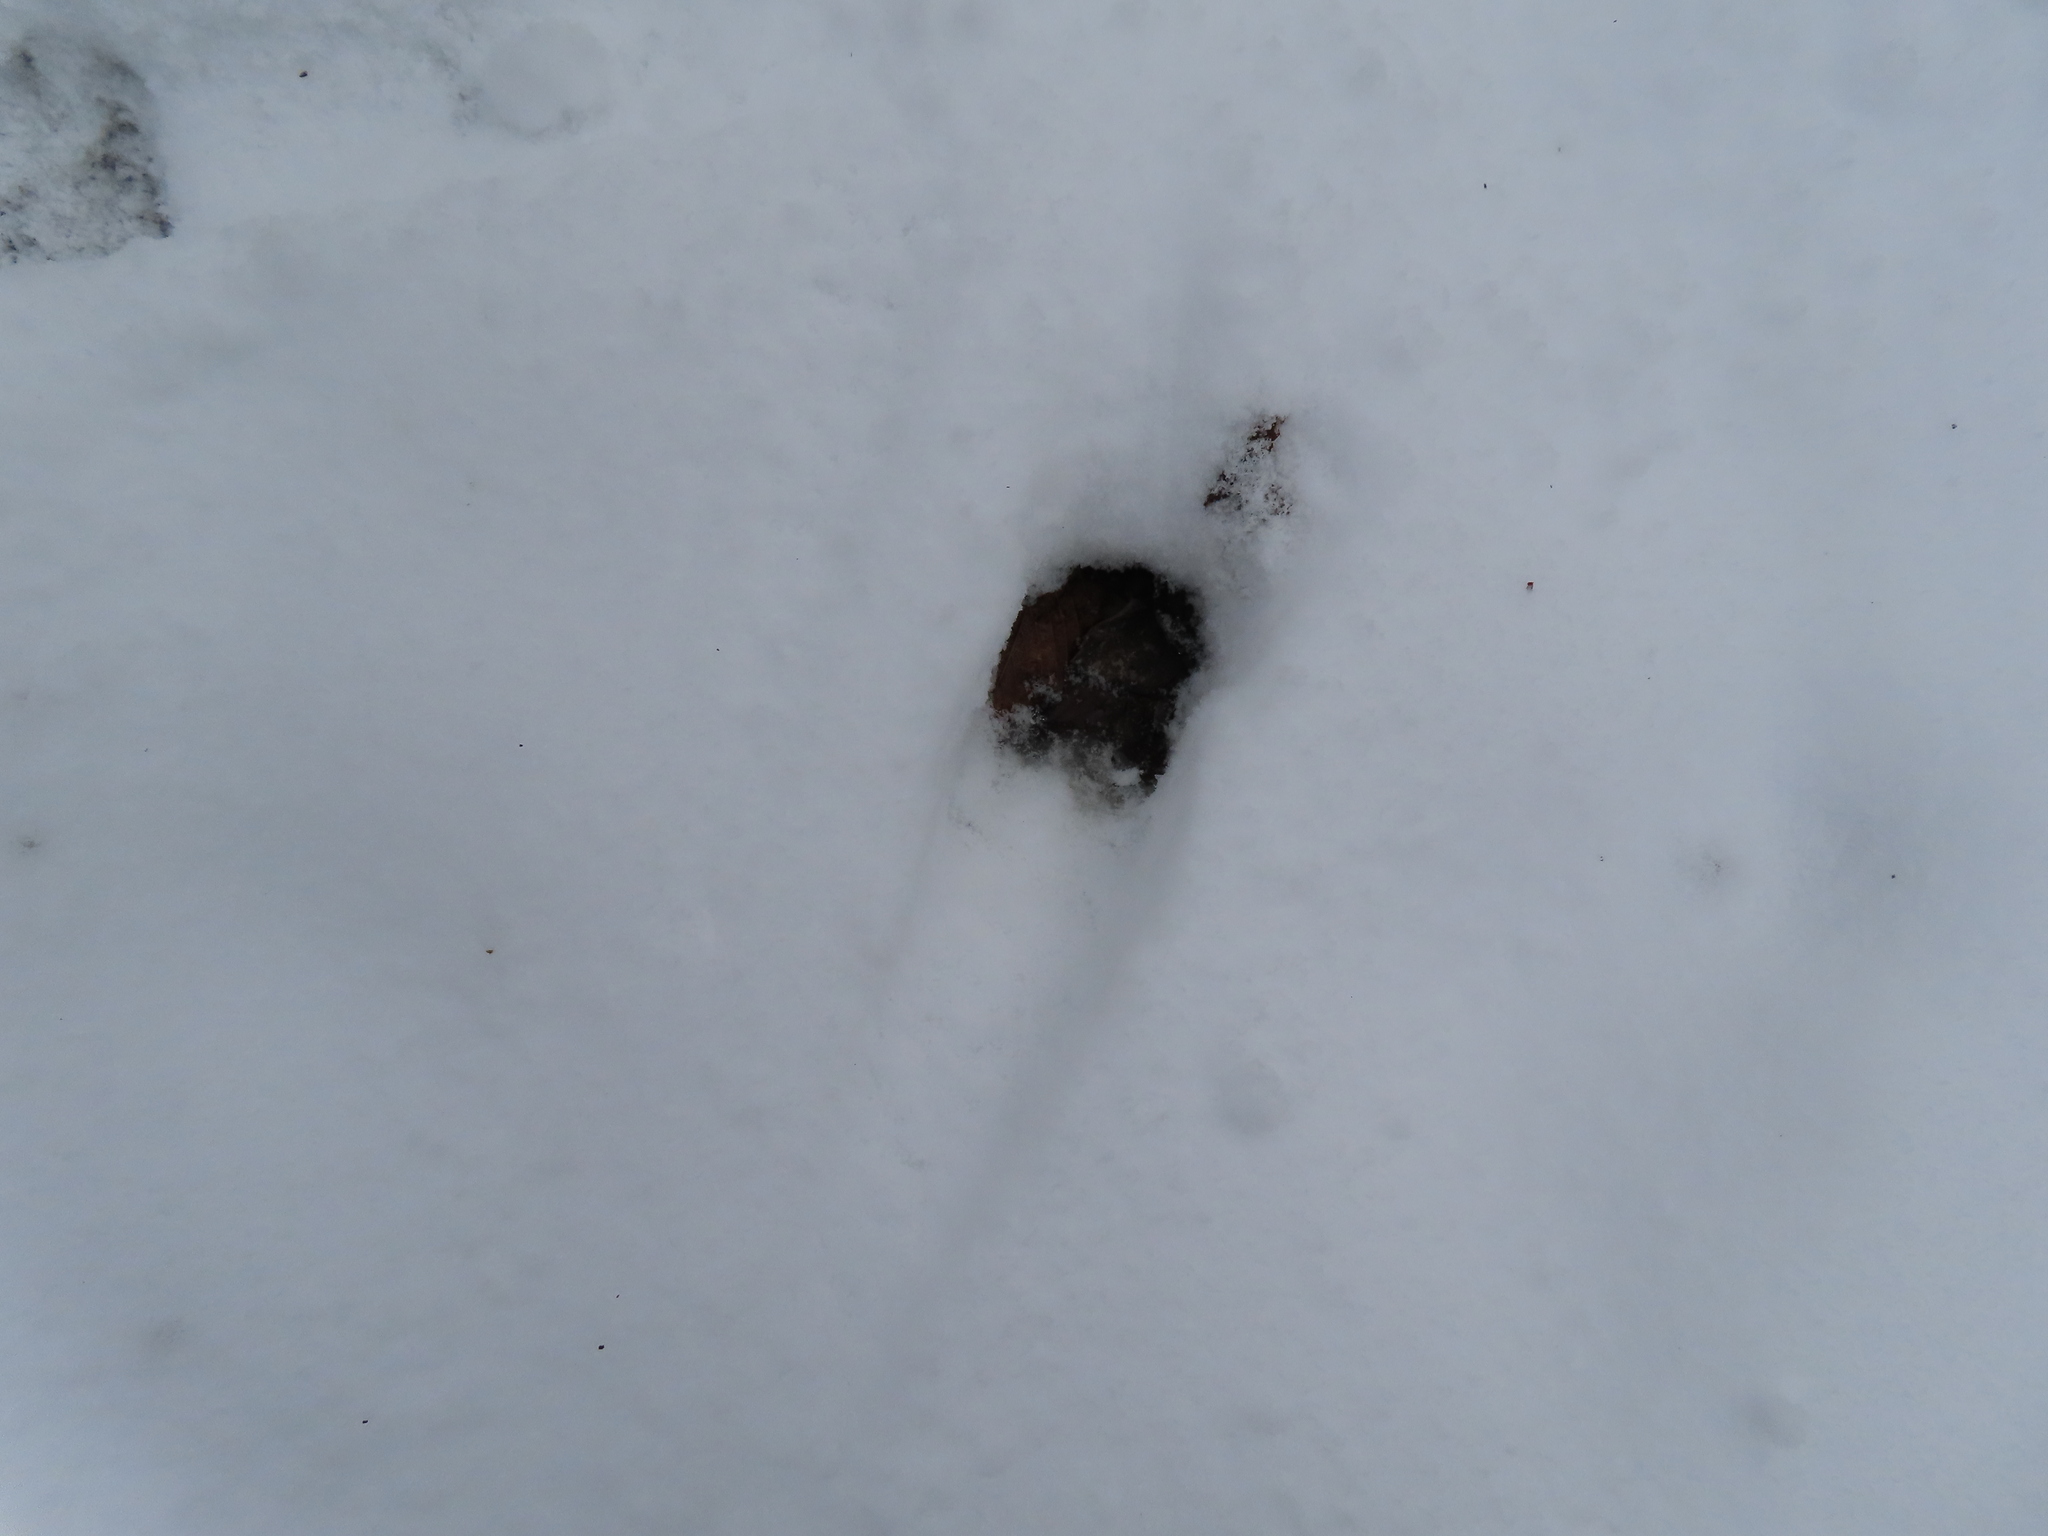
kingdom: Animalia
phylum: Chordata
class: Mammalia
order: Artiodactyla
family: Cervidae
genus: Odocoileus
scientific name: Odocoileus virginianus
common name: White-tailed deer
